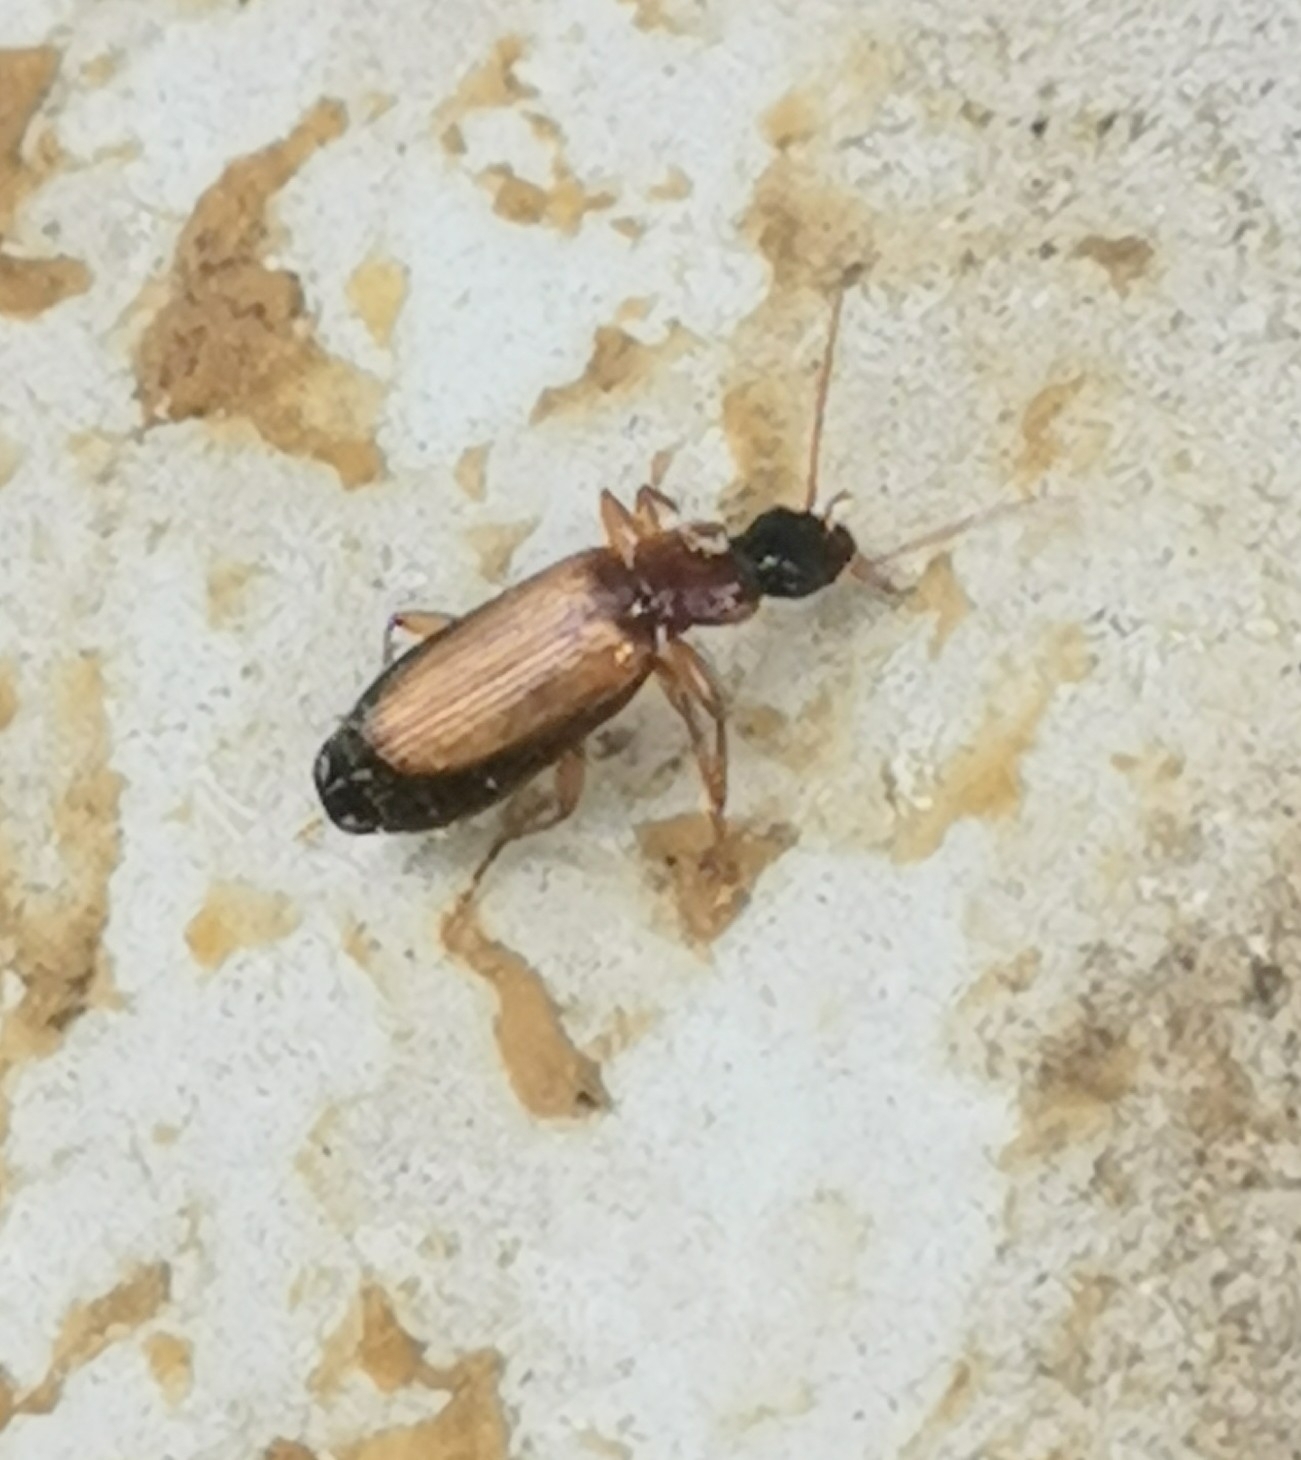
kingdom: Animalia
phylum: Arthropoda
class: Insecta
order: Coleoptera
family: Carabidae
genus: Dromius
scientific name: Dromius schneideri
